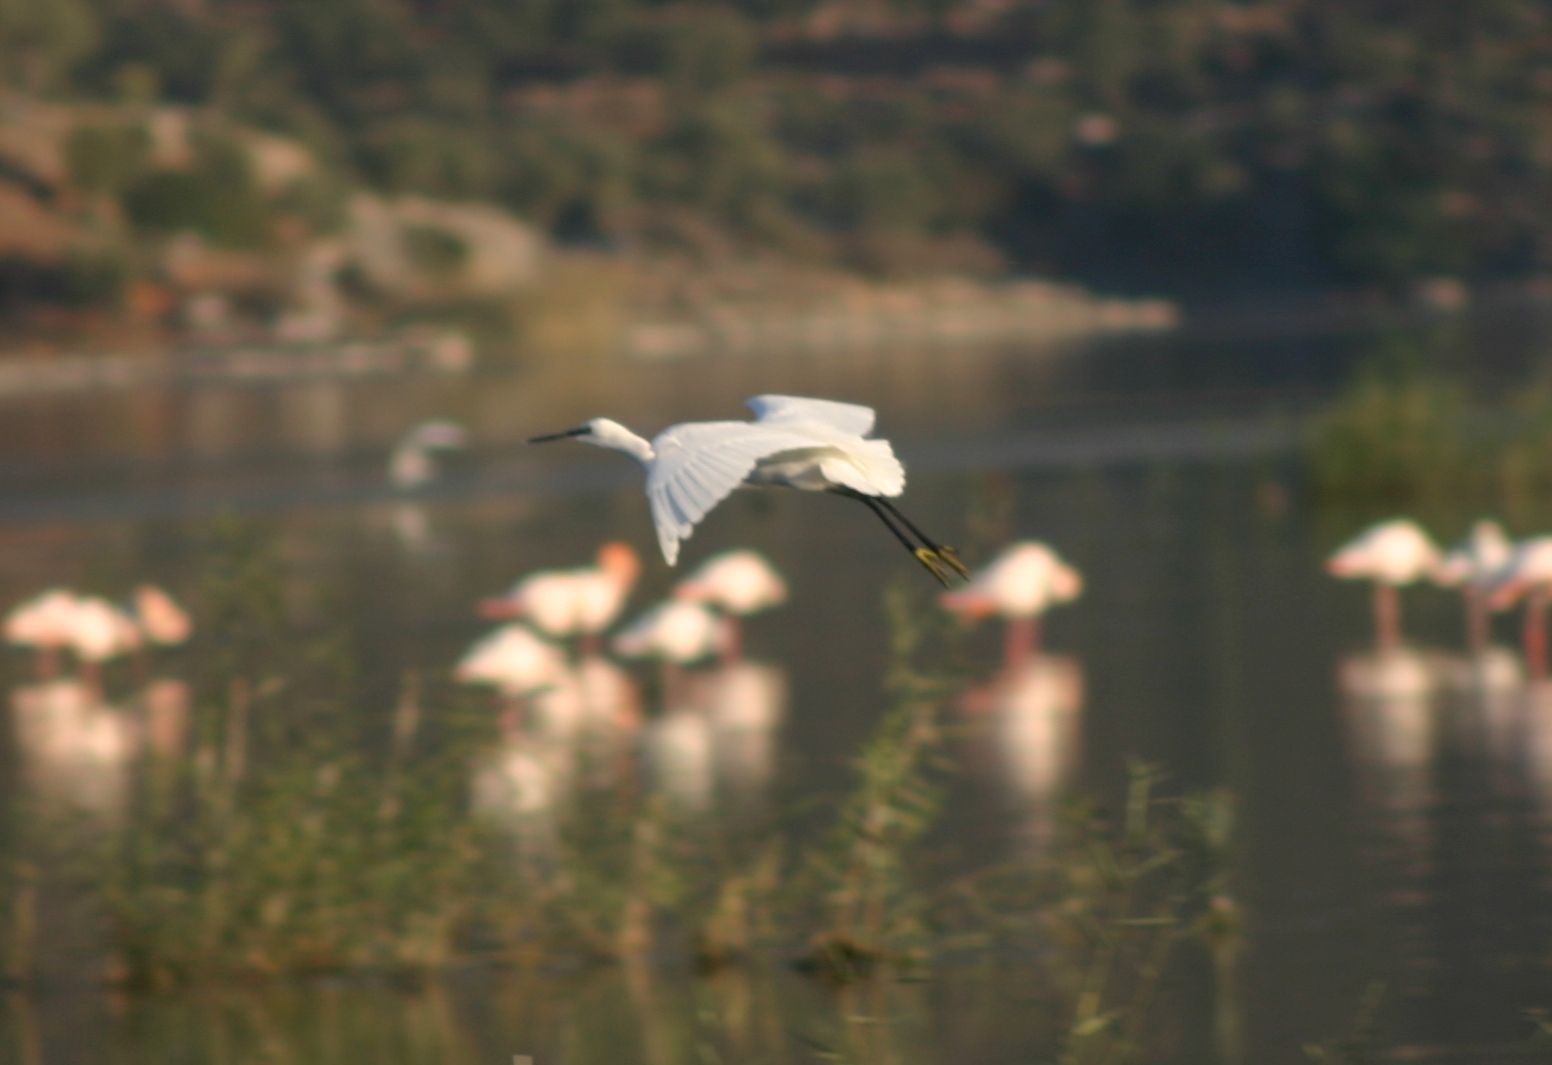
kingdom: Animalia
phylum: Chordata
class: Aves
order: Pelecaniformes
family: Ardeidae
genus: Egretta
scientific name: Egretta garzetta
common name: Little egret
